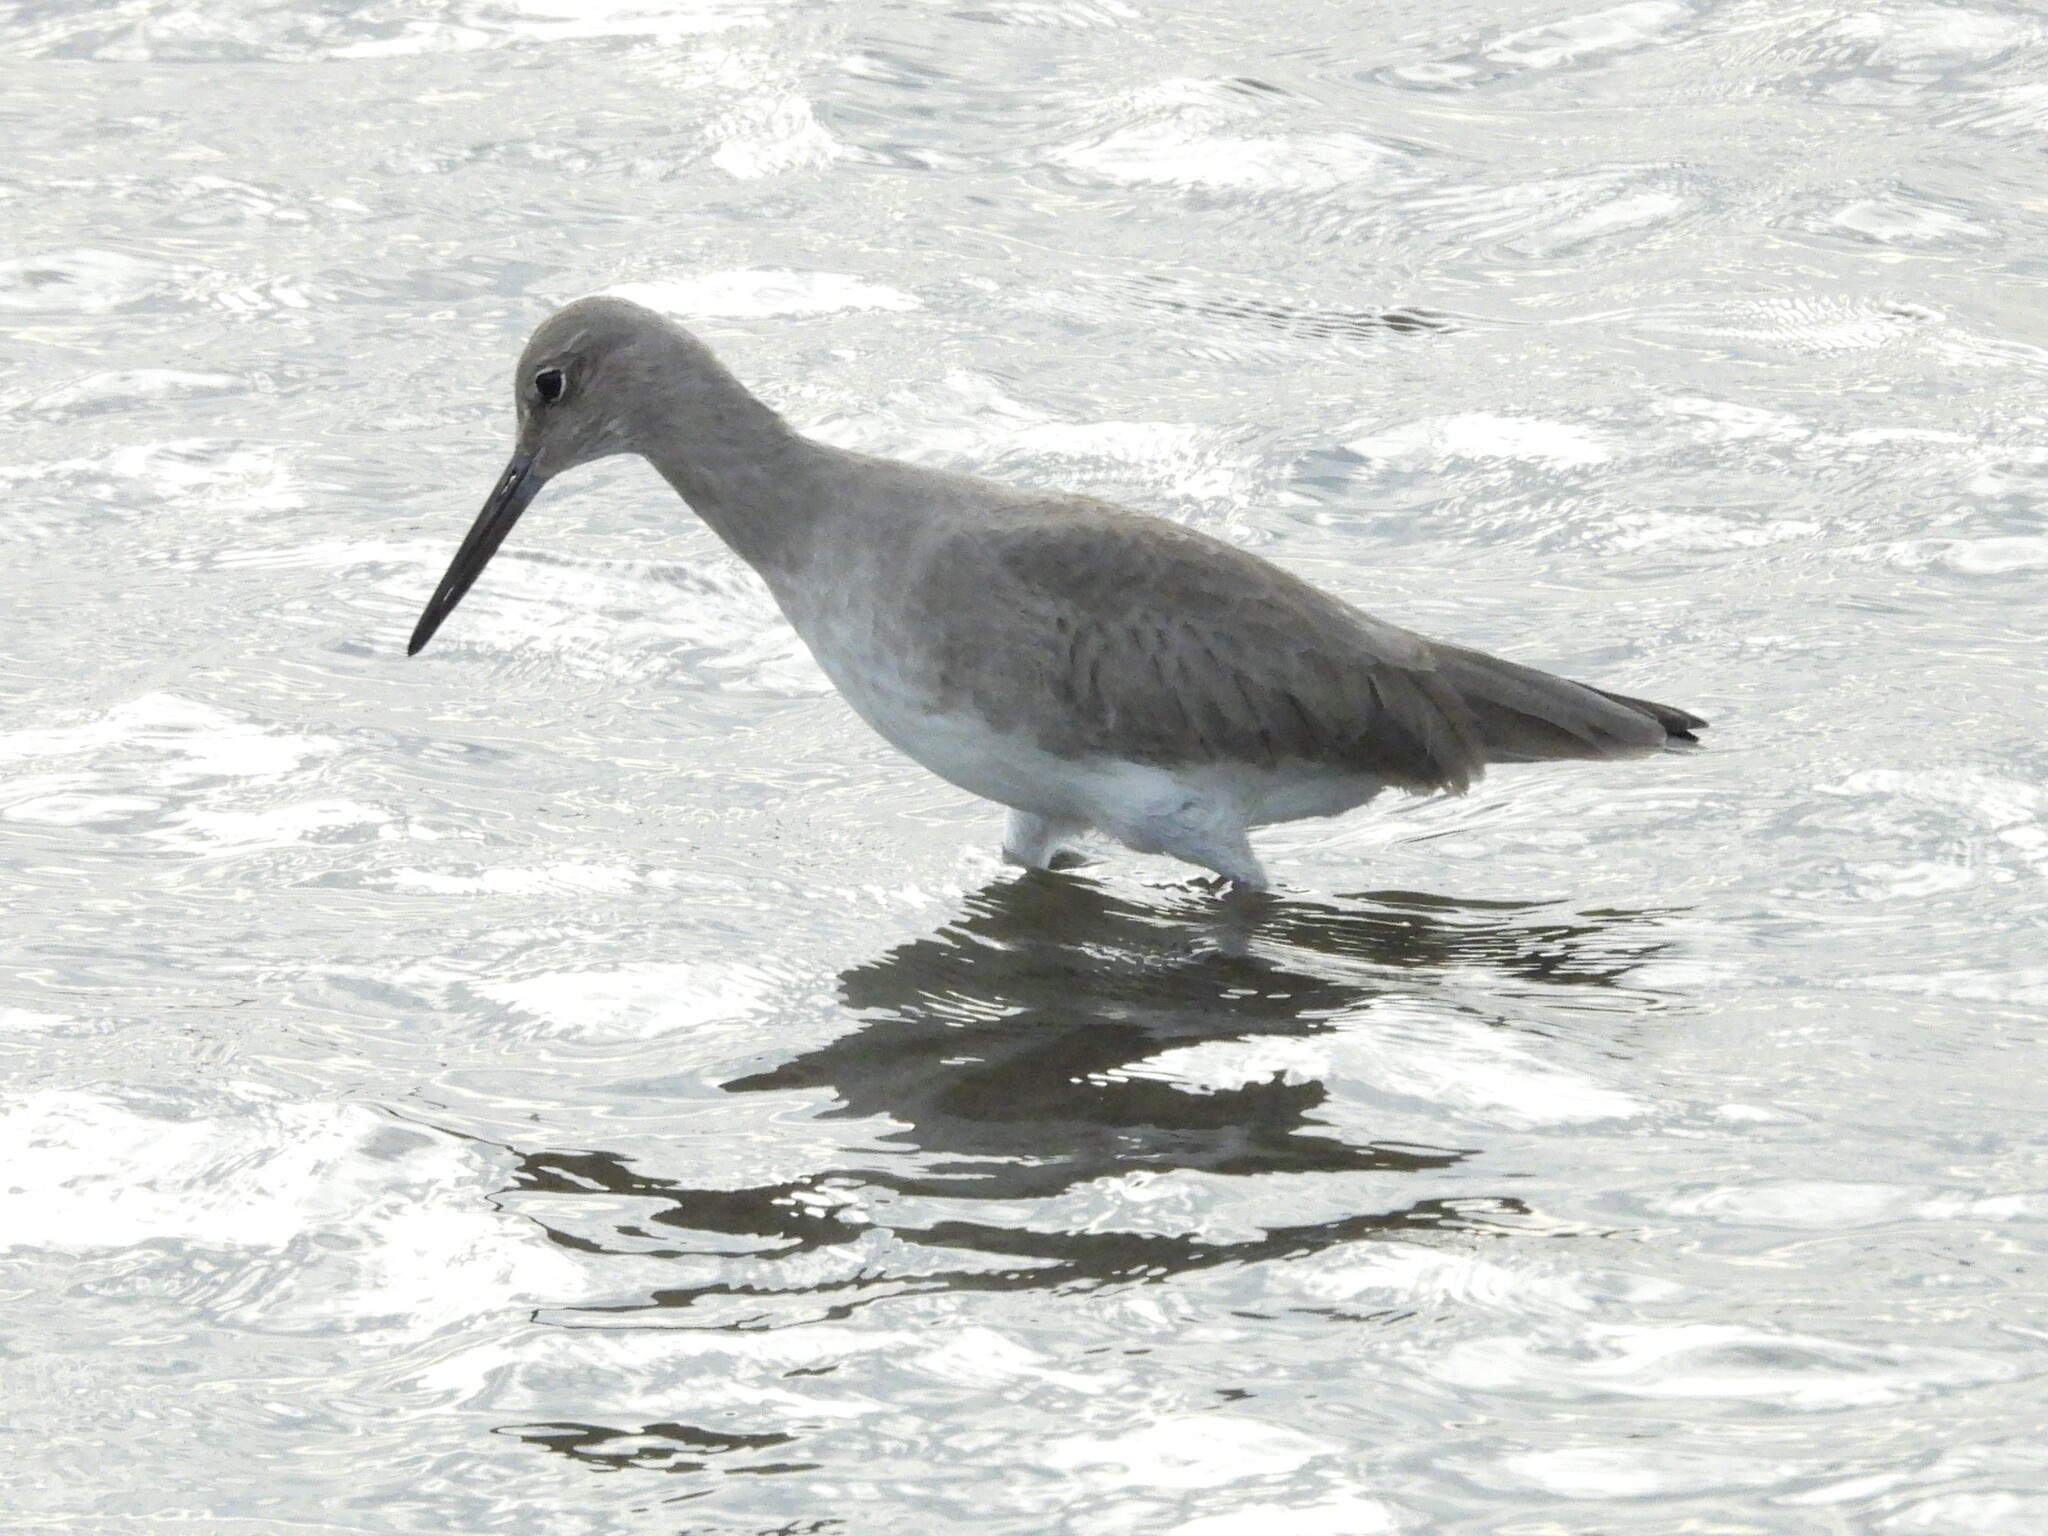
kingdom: Animalia
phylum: Chordata
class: Aves
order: Charadriiformes
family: Scolopacidae
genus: Tringa
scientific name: Tringa semipalmata
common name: Willet
